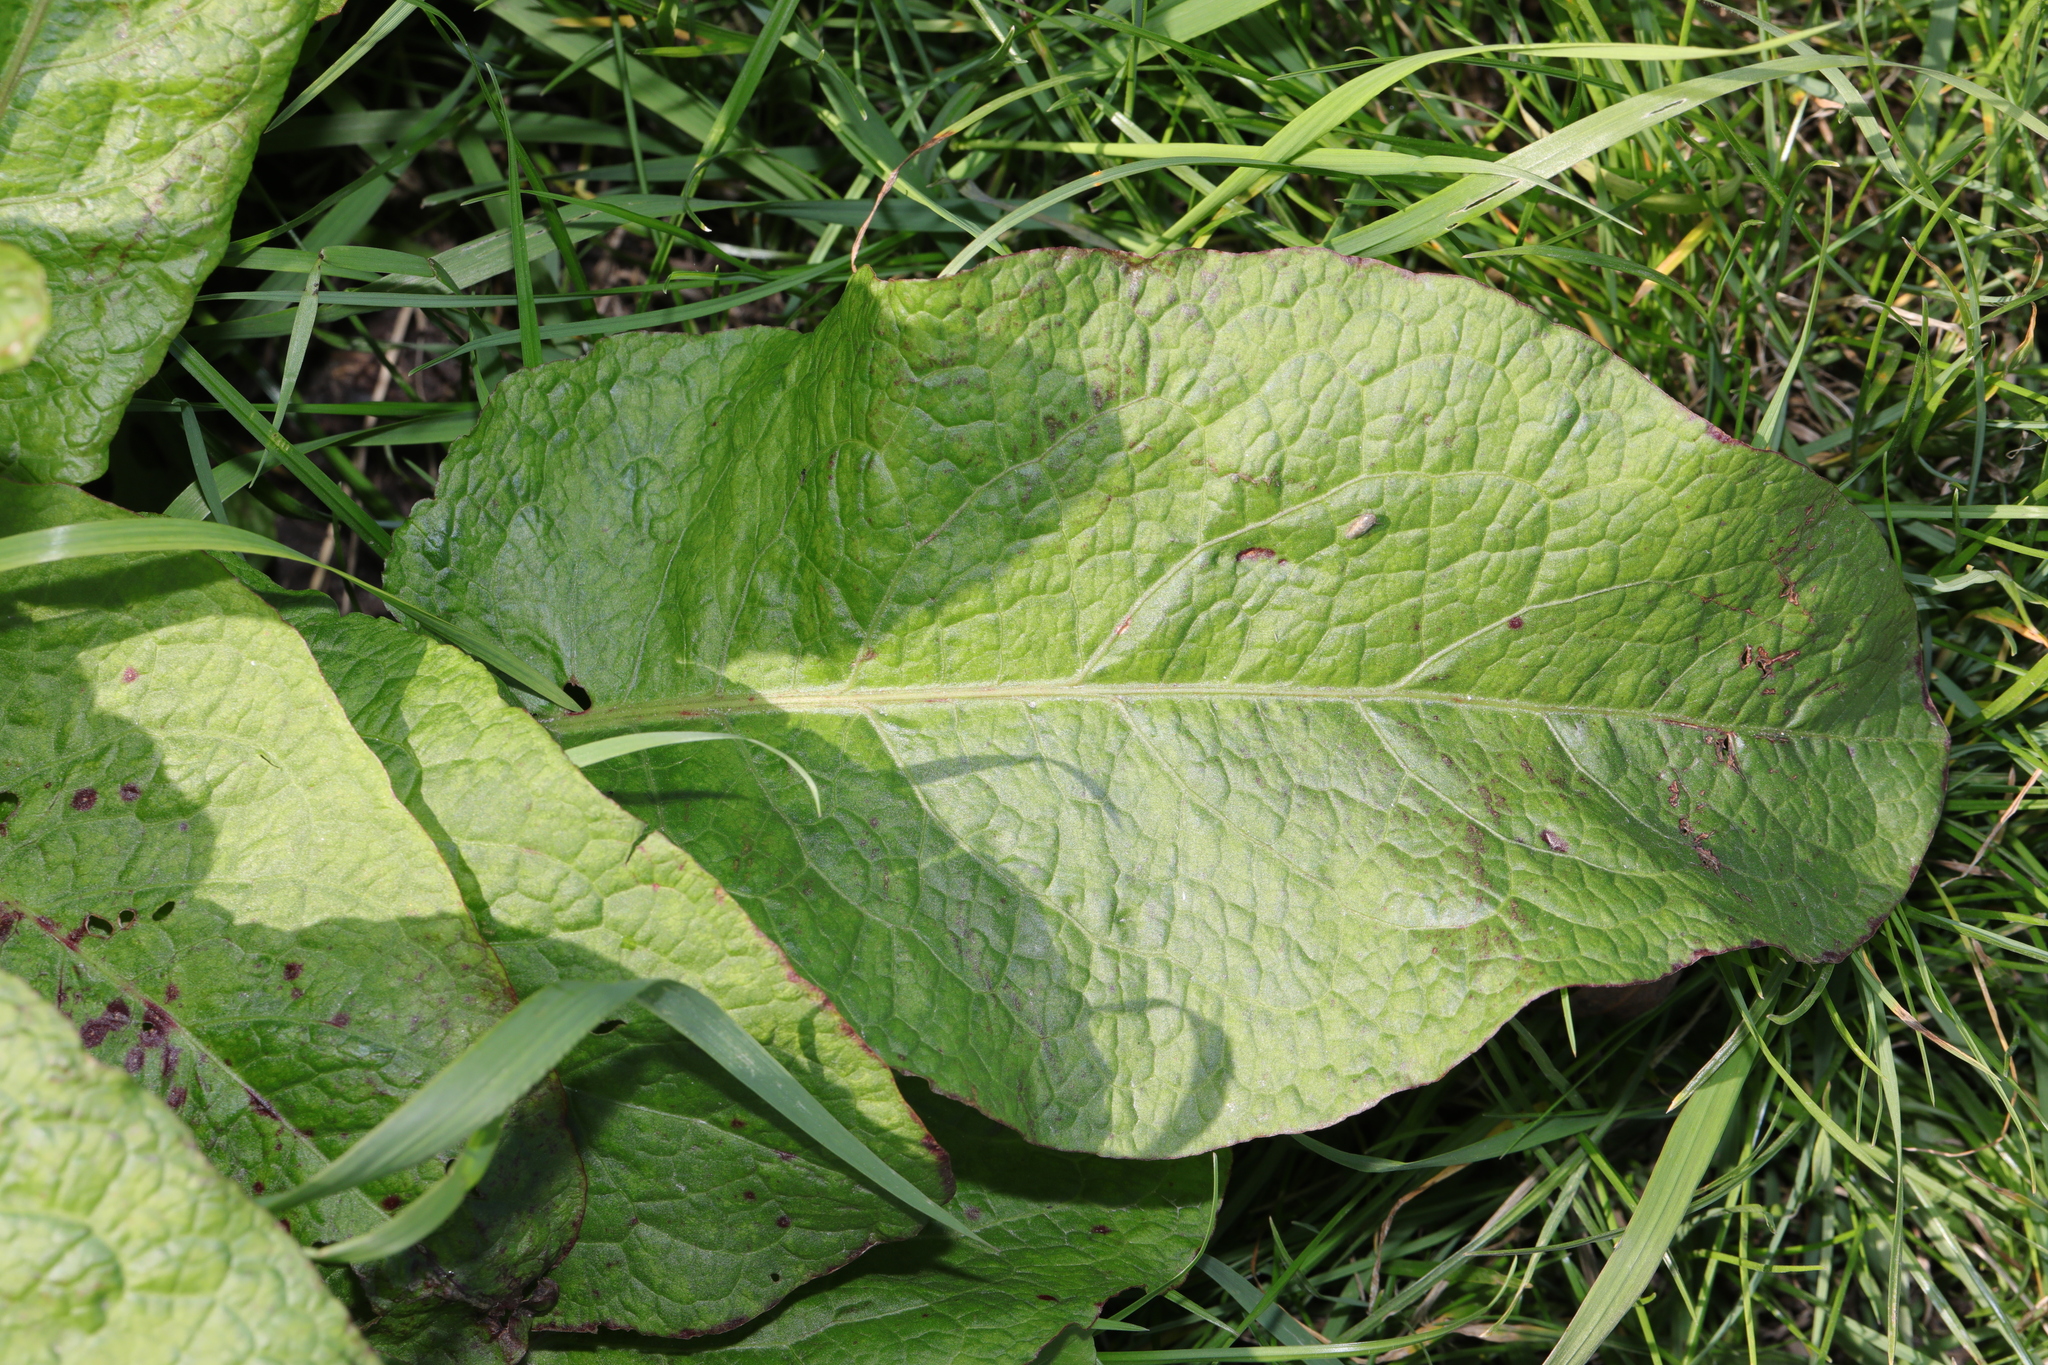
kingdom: Plantae
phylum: Tracheophyta
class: Magnoliopsida
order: Caryophyllales
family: Polygonaceae
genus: Rumex
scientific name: Rumex obtusifolius
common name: Bitter dock
